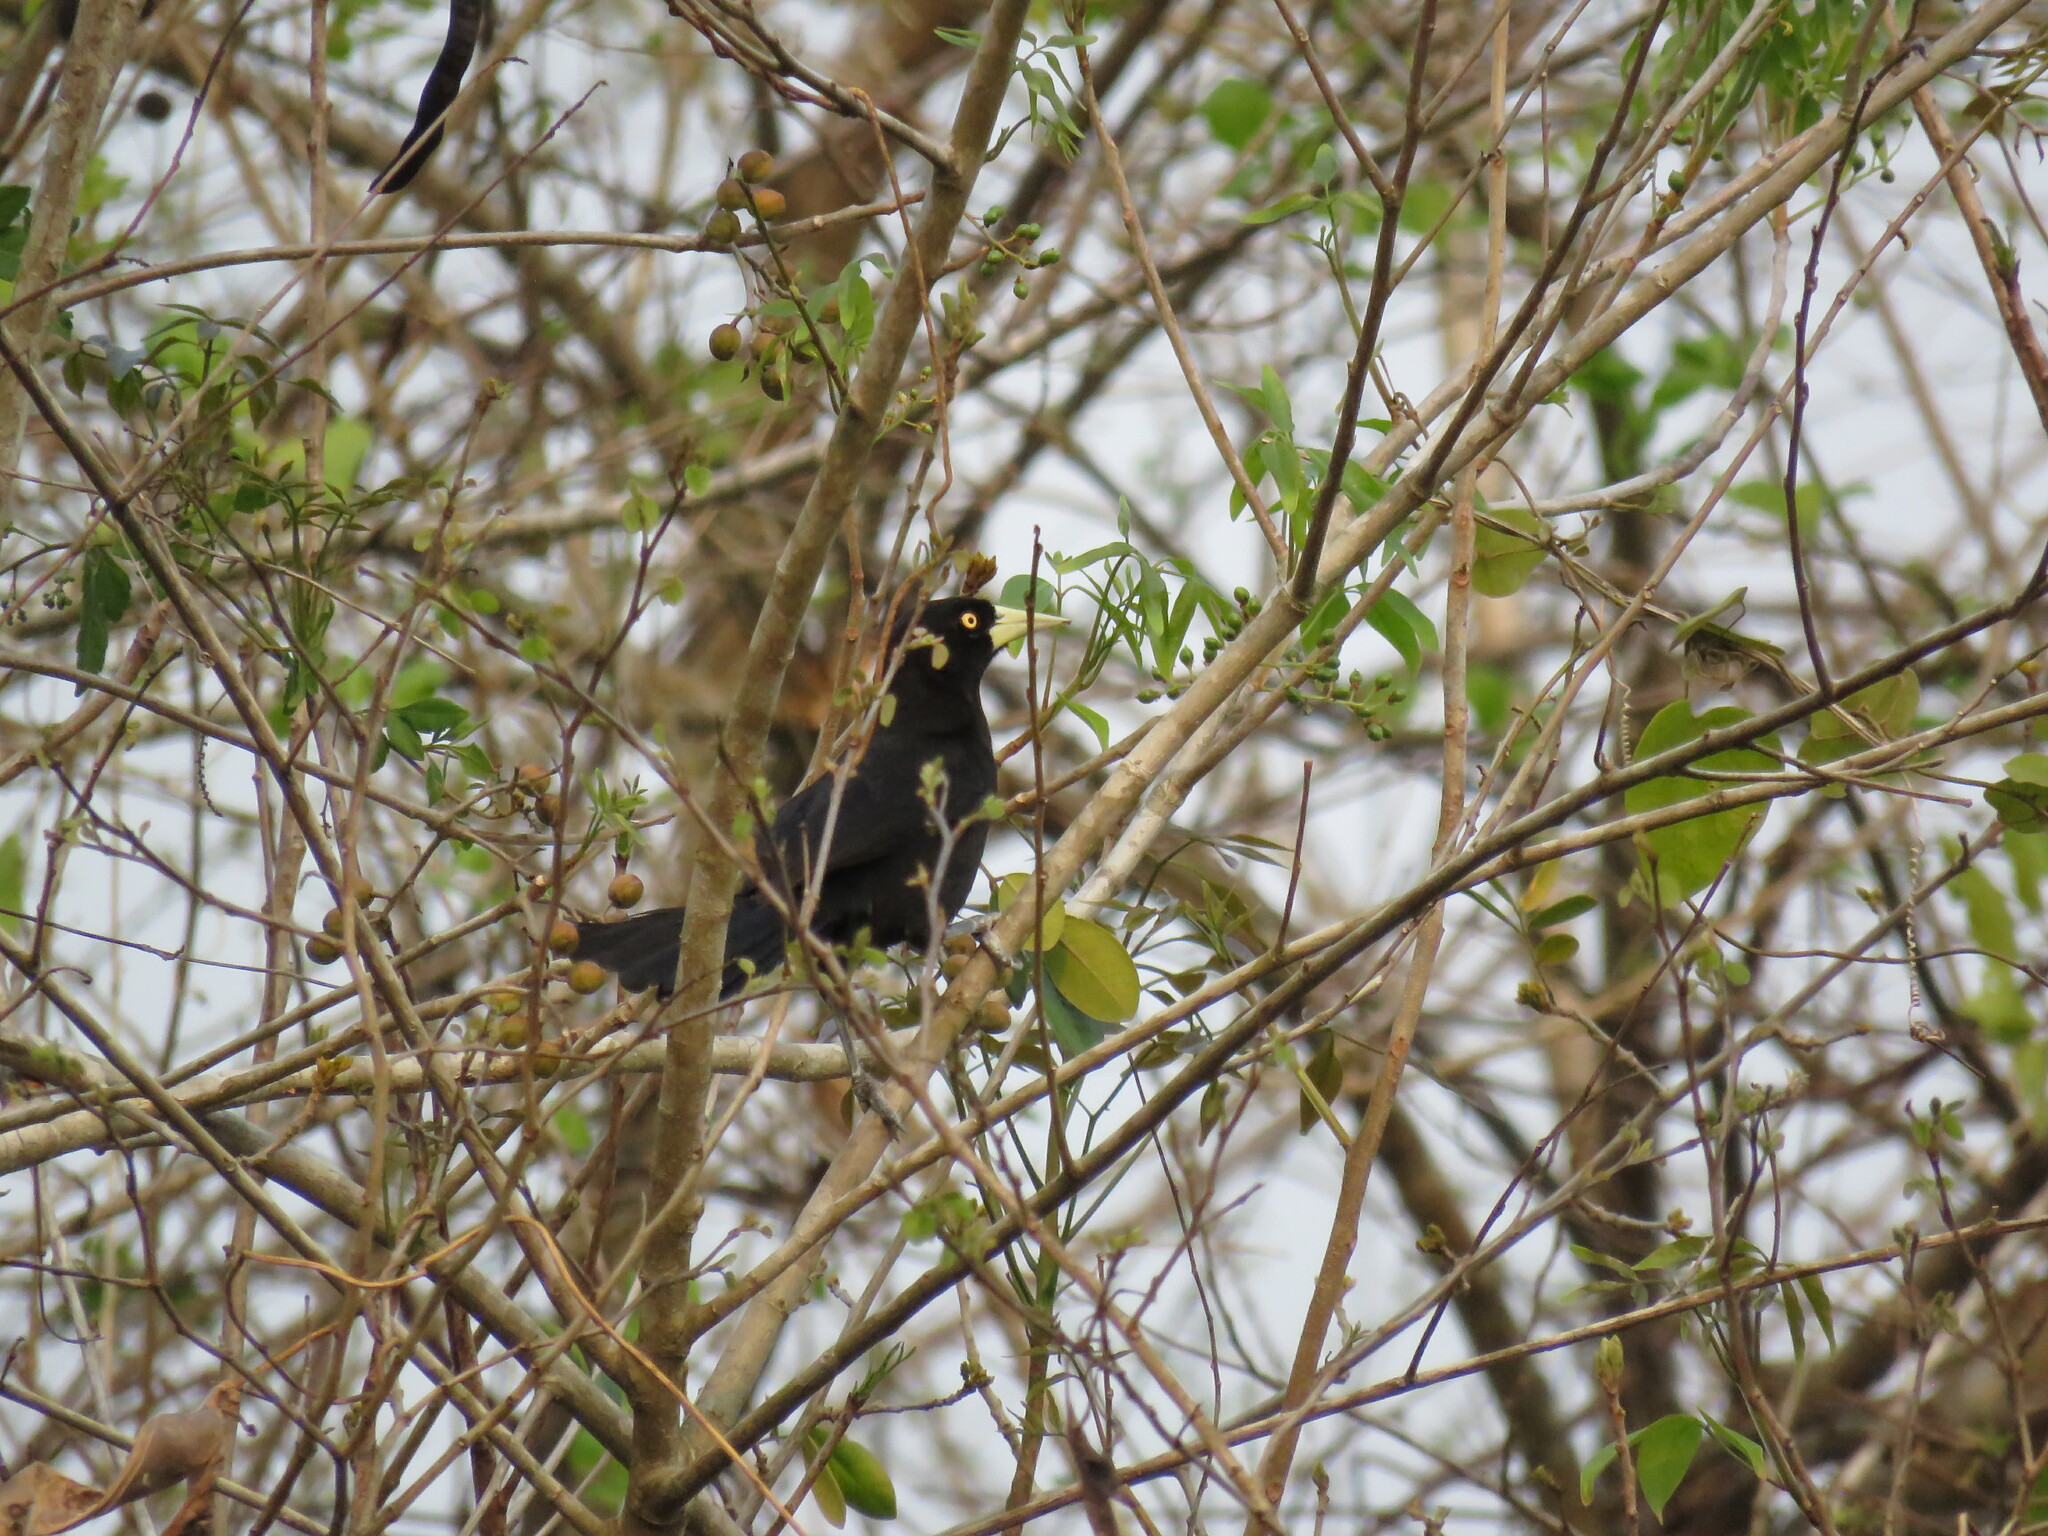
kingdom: Animalia
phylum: Chordata
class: Aves
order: Passeriformes
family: Icteridae
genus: Amblycercus
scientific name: Amblycercus holosericeus
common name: Yellow-billed cacique
